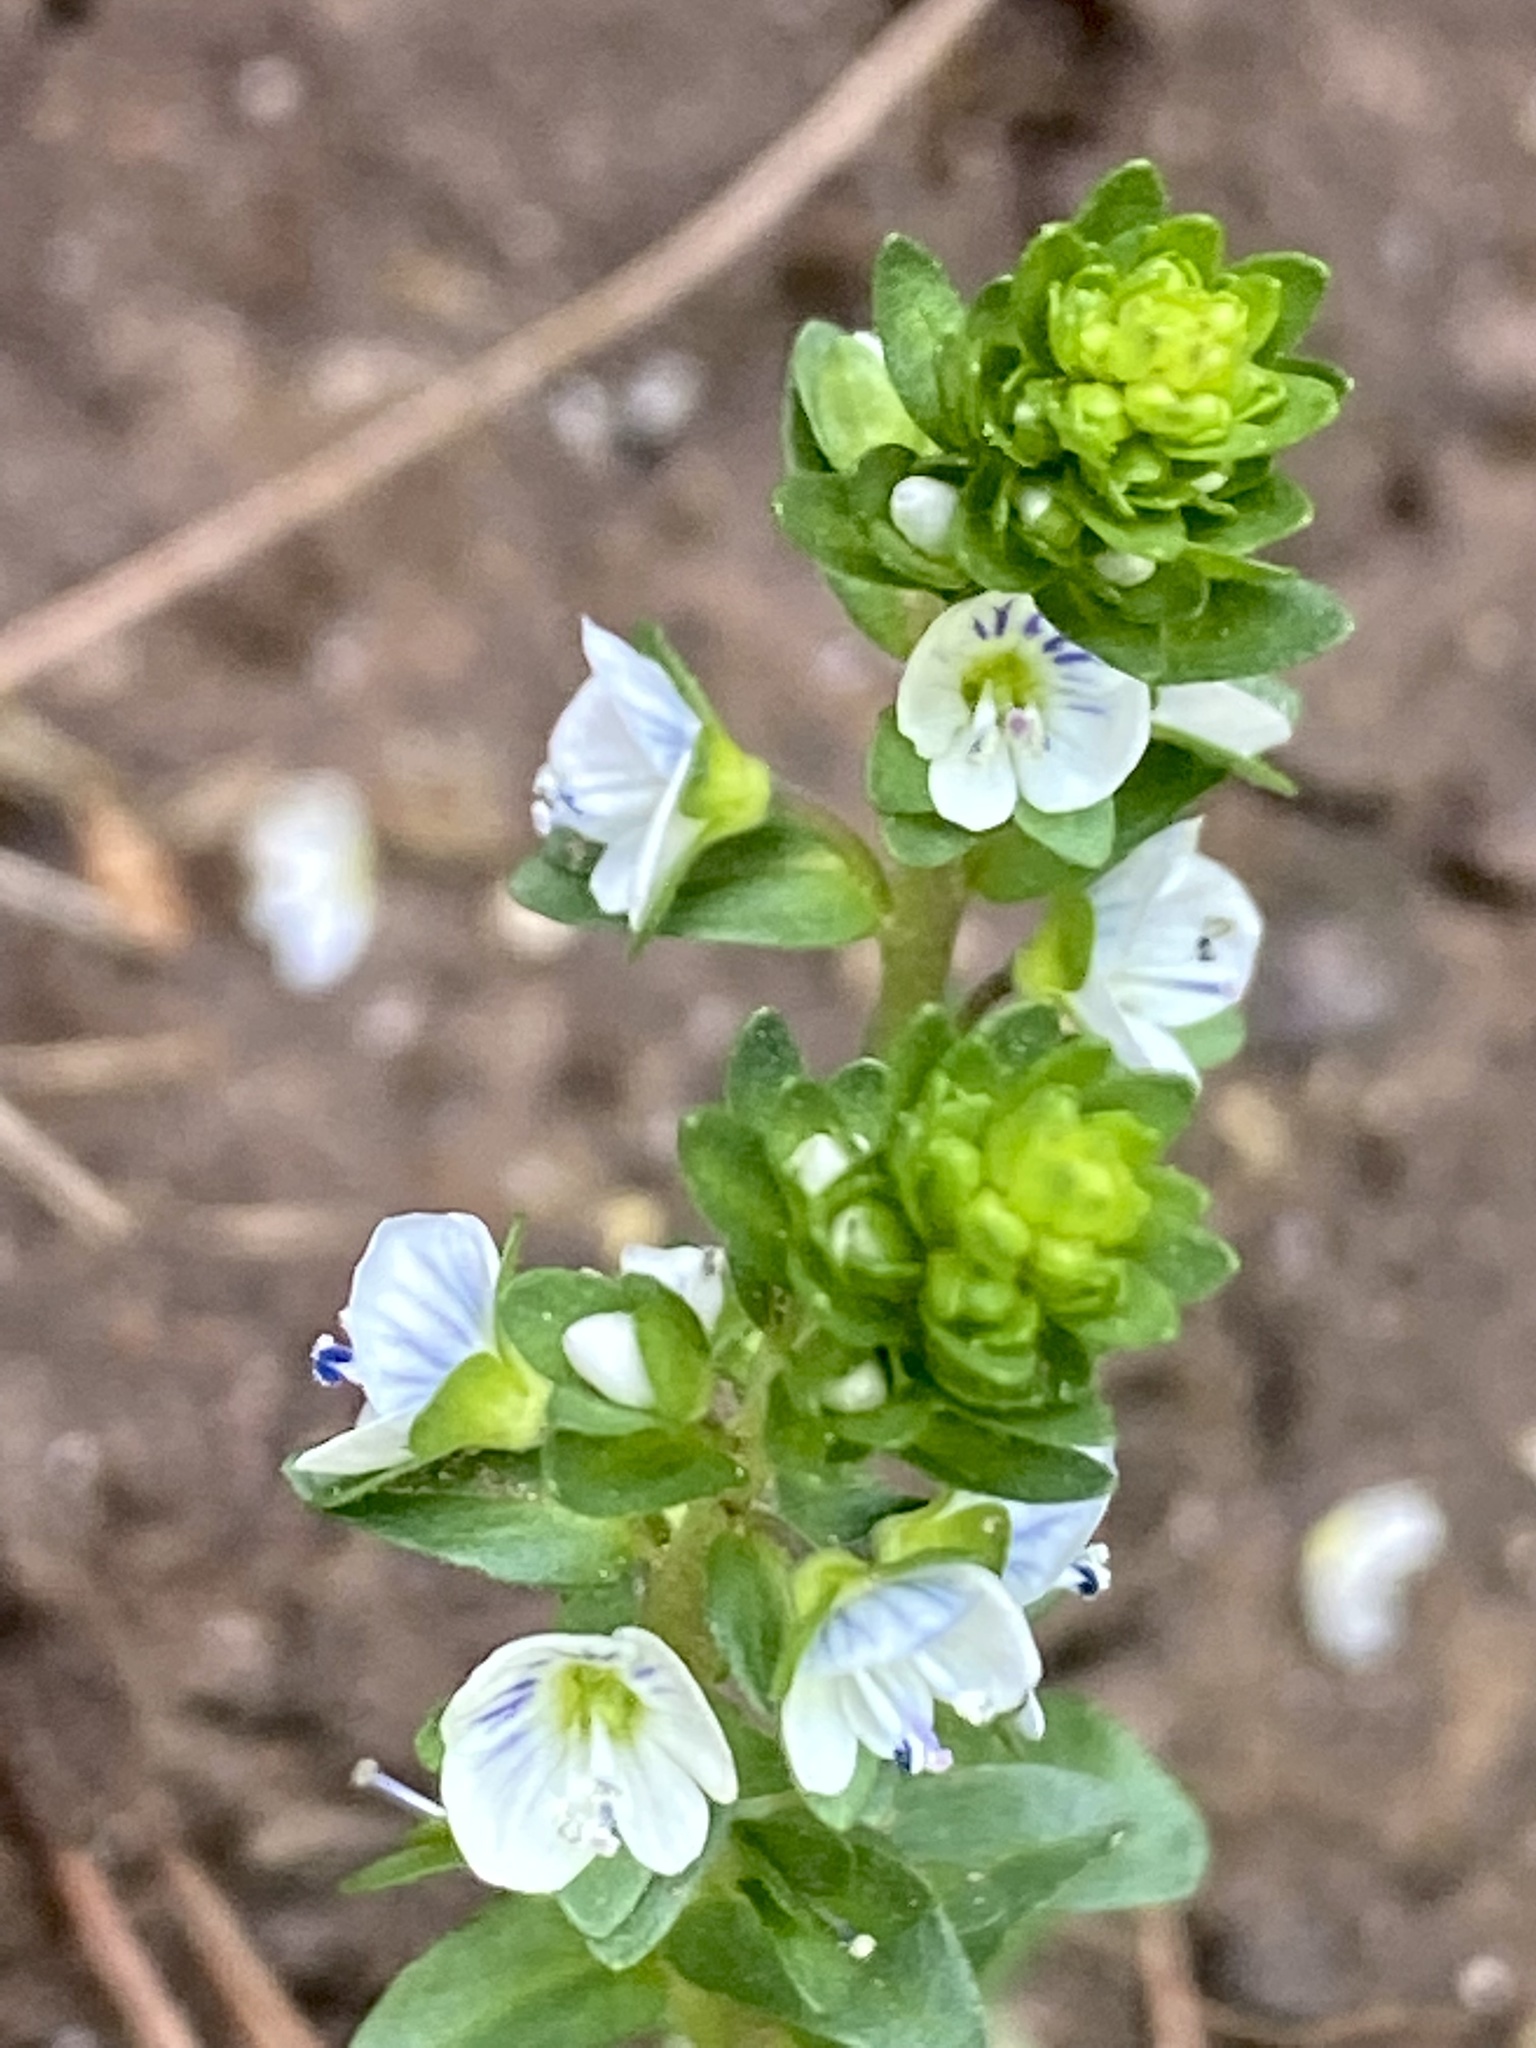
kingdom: Plantae
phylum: Tracheophyta
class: Magnoliopsida
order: Lamiales
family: Plantaginaceae
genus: Veronica
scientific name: Veronica serpyllifolia
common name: Thyme-leaved speedwell
